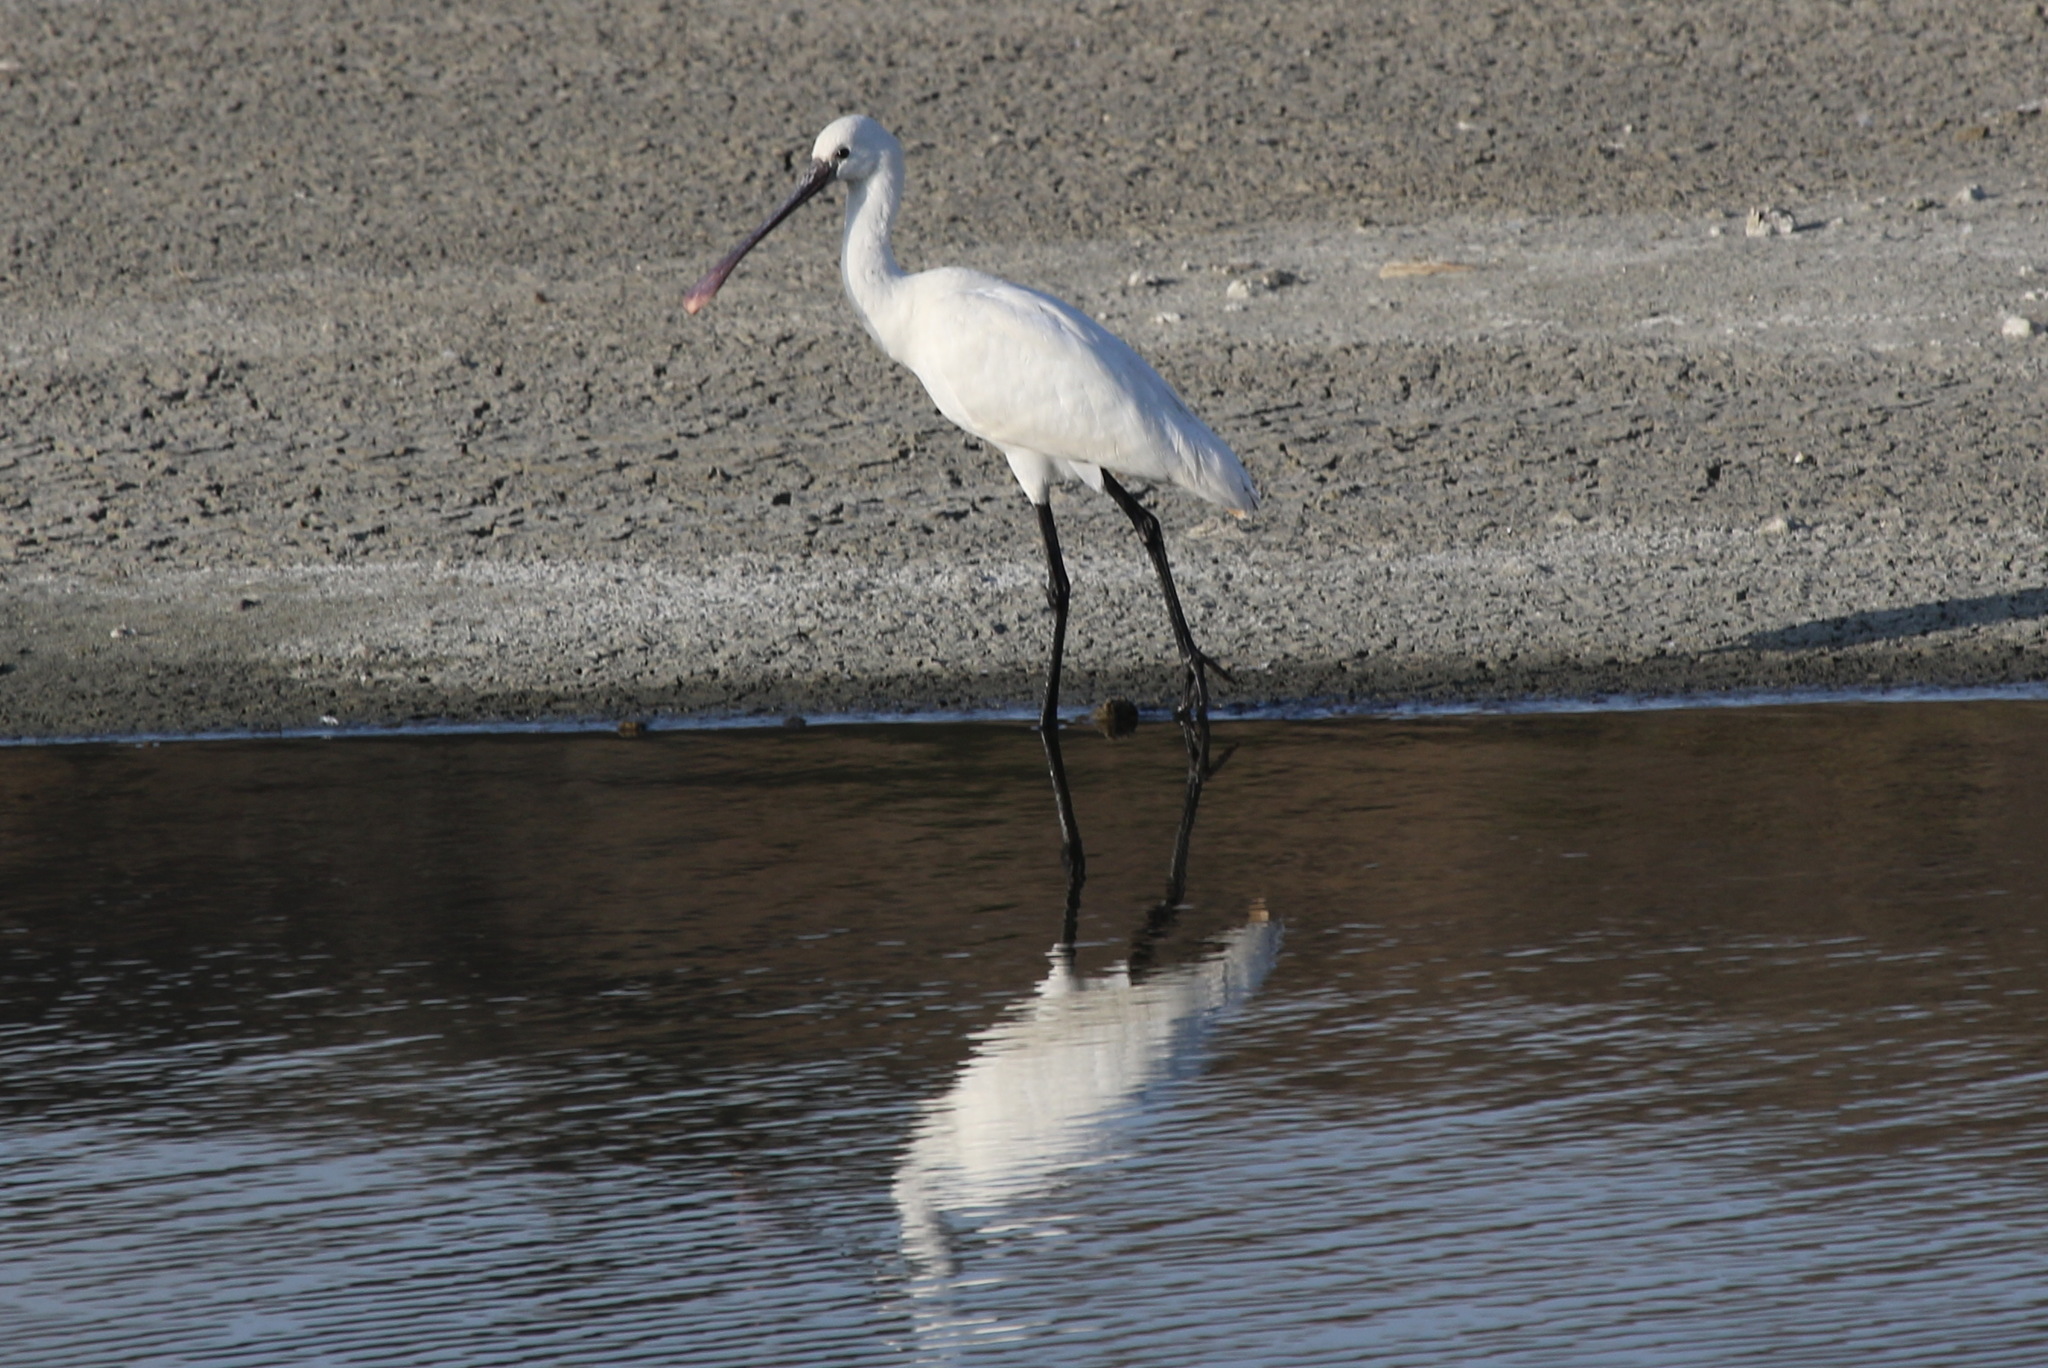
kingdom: Animalia
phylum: Chordata
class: Aves
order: Pelecaniformes
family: Threskiornithidae
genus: Platalea
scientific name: Platalea leucorodia
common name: Eurasian spoonbill
